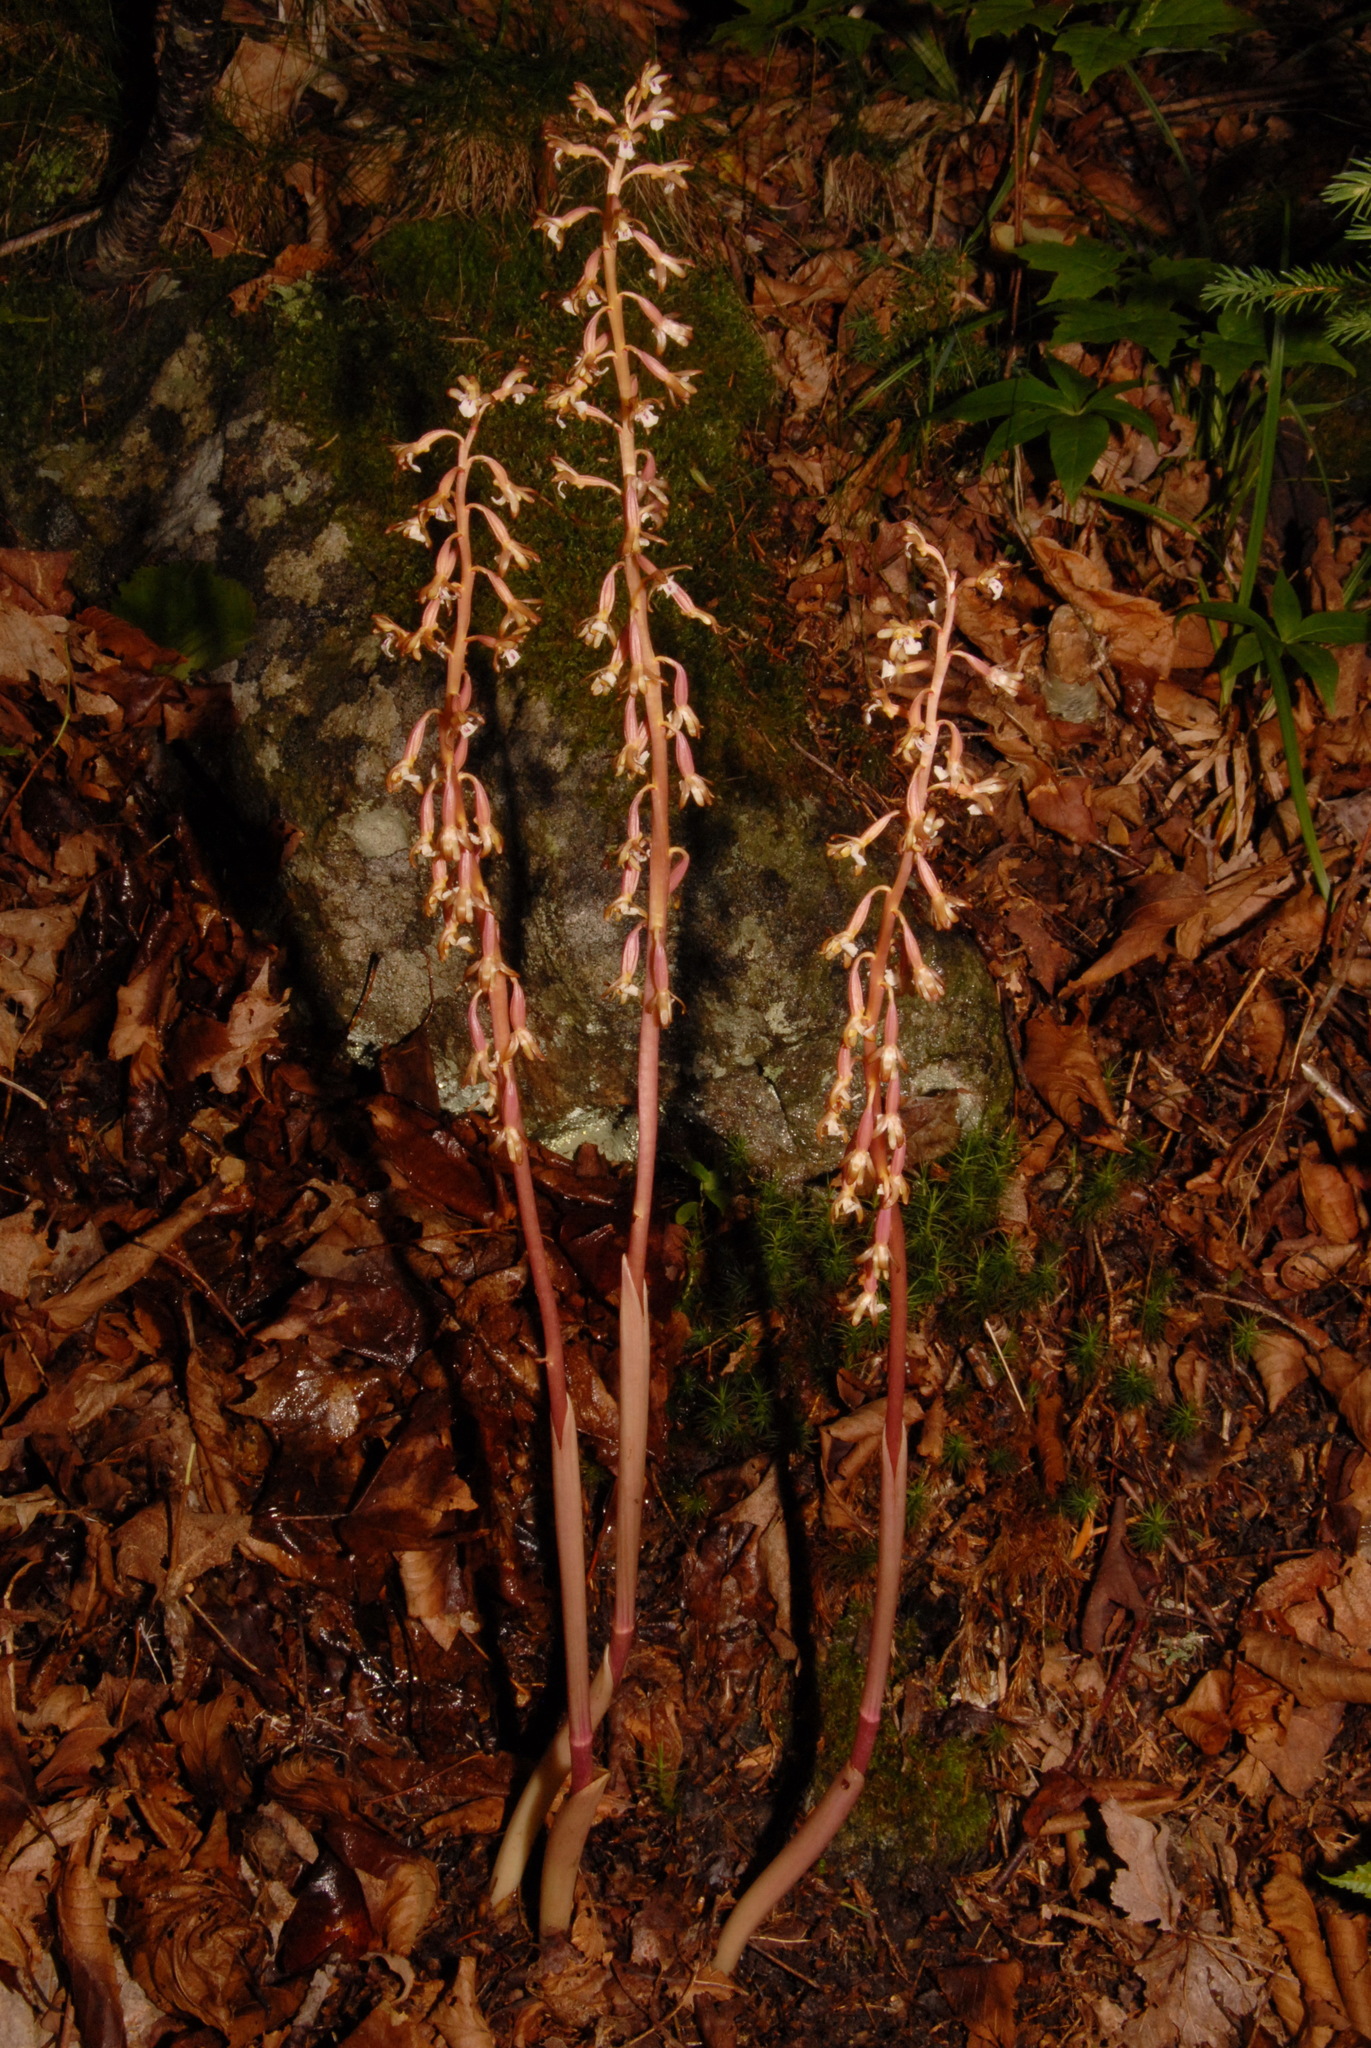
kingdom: Plantae
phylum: Tracheophyta
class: Liliopsida
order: Asparagales
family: Orchidaceae
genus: Corallorhiza
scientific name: Corallorhiza maculata
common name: Spotted coralroot
